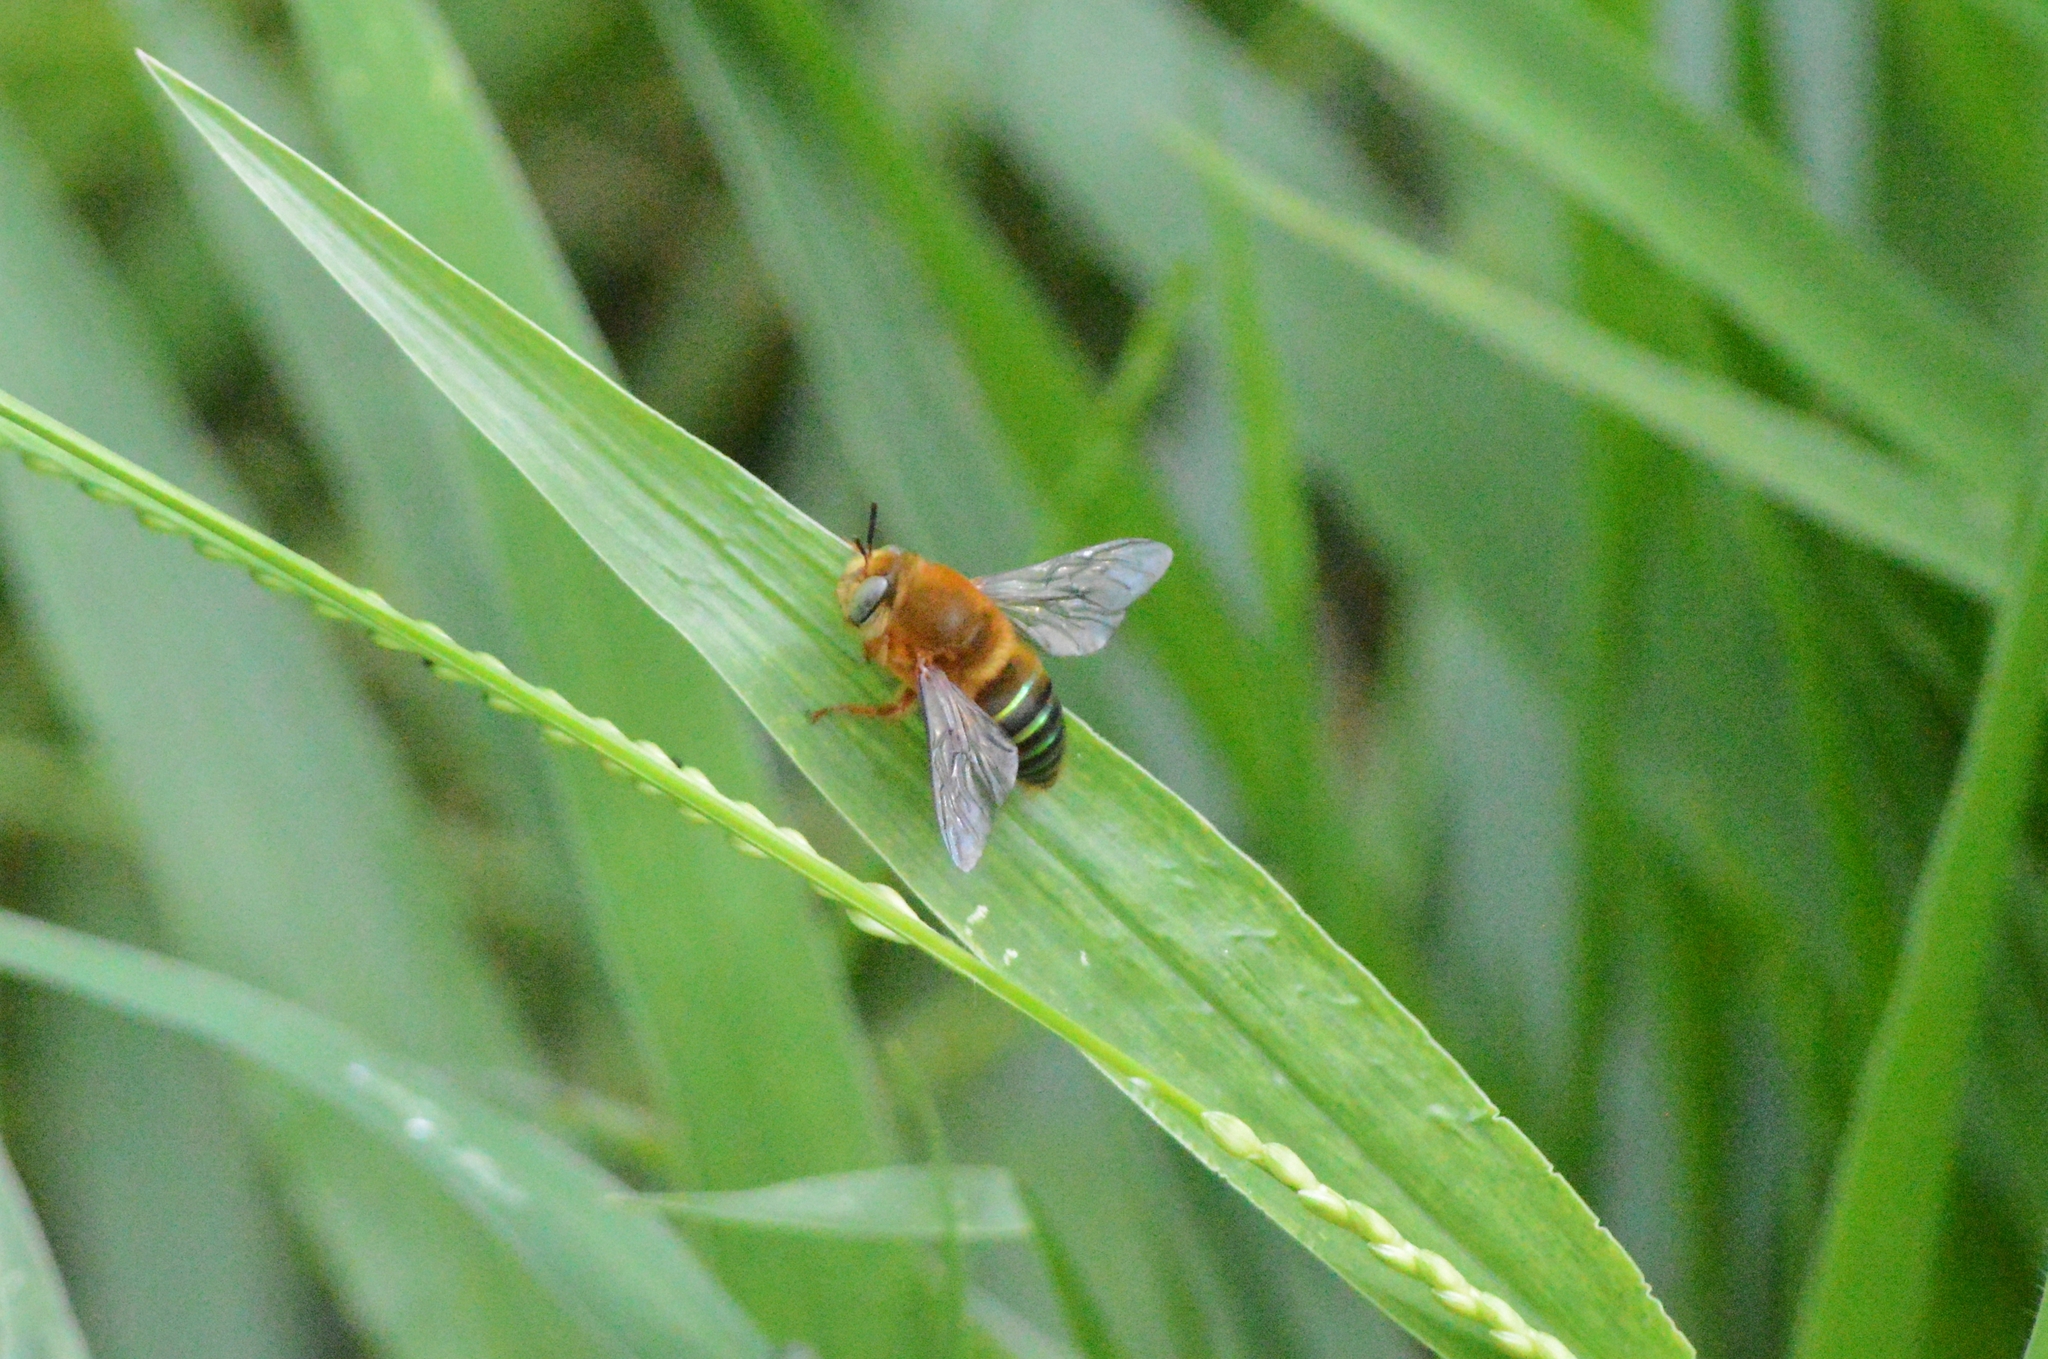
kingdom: Animalia
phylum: Arthropoda
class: Insecta
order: Hymenoptera
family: Andrenidae
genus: Oxaea
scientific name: Oxaea flavescens
